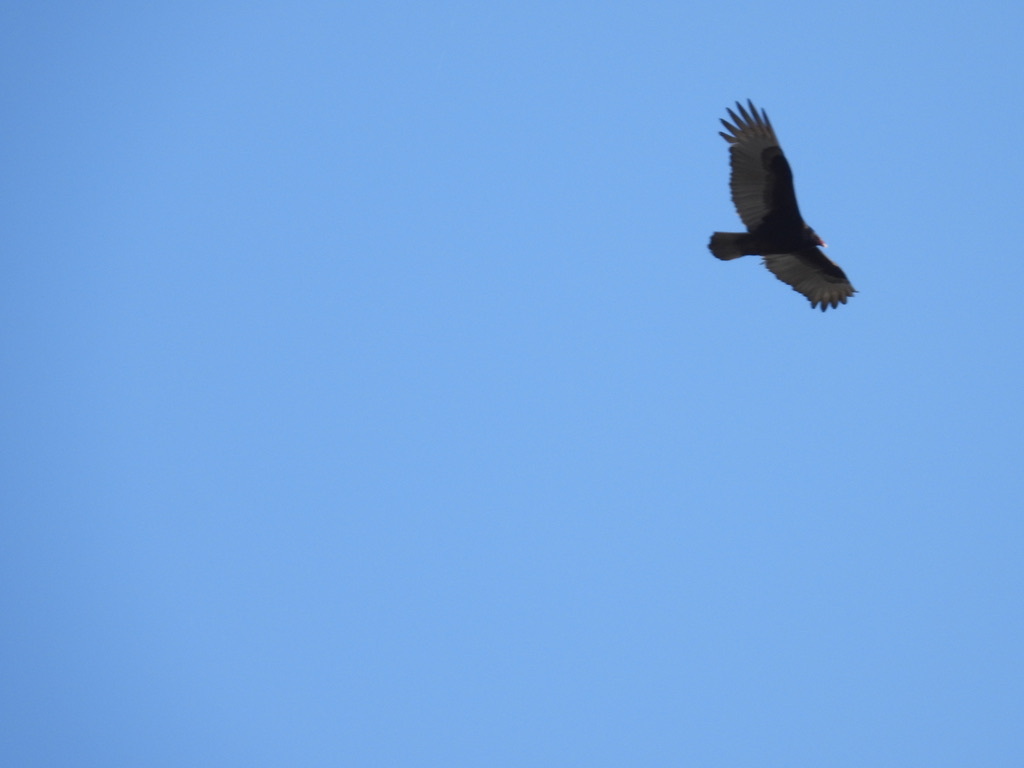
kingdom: Animalia
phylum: Chordata
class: Aves
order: Accipitriformes
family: Cathartidae
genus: Cathartes
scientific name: Cathartes aura
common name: Turkey vulture
